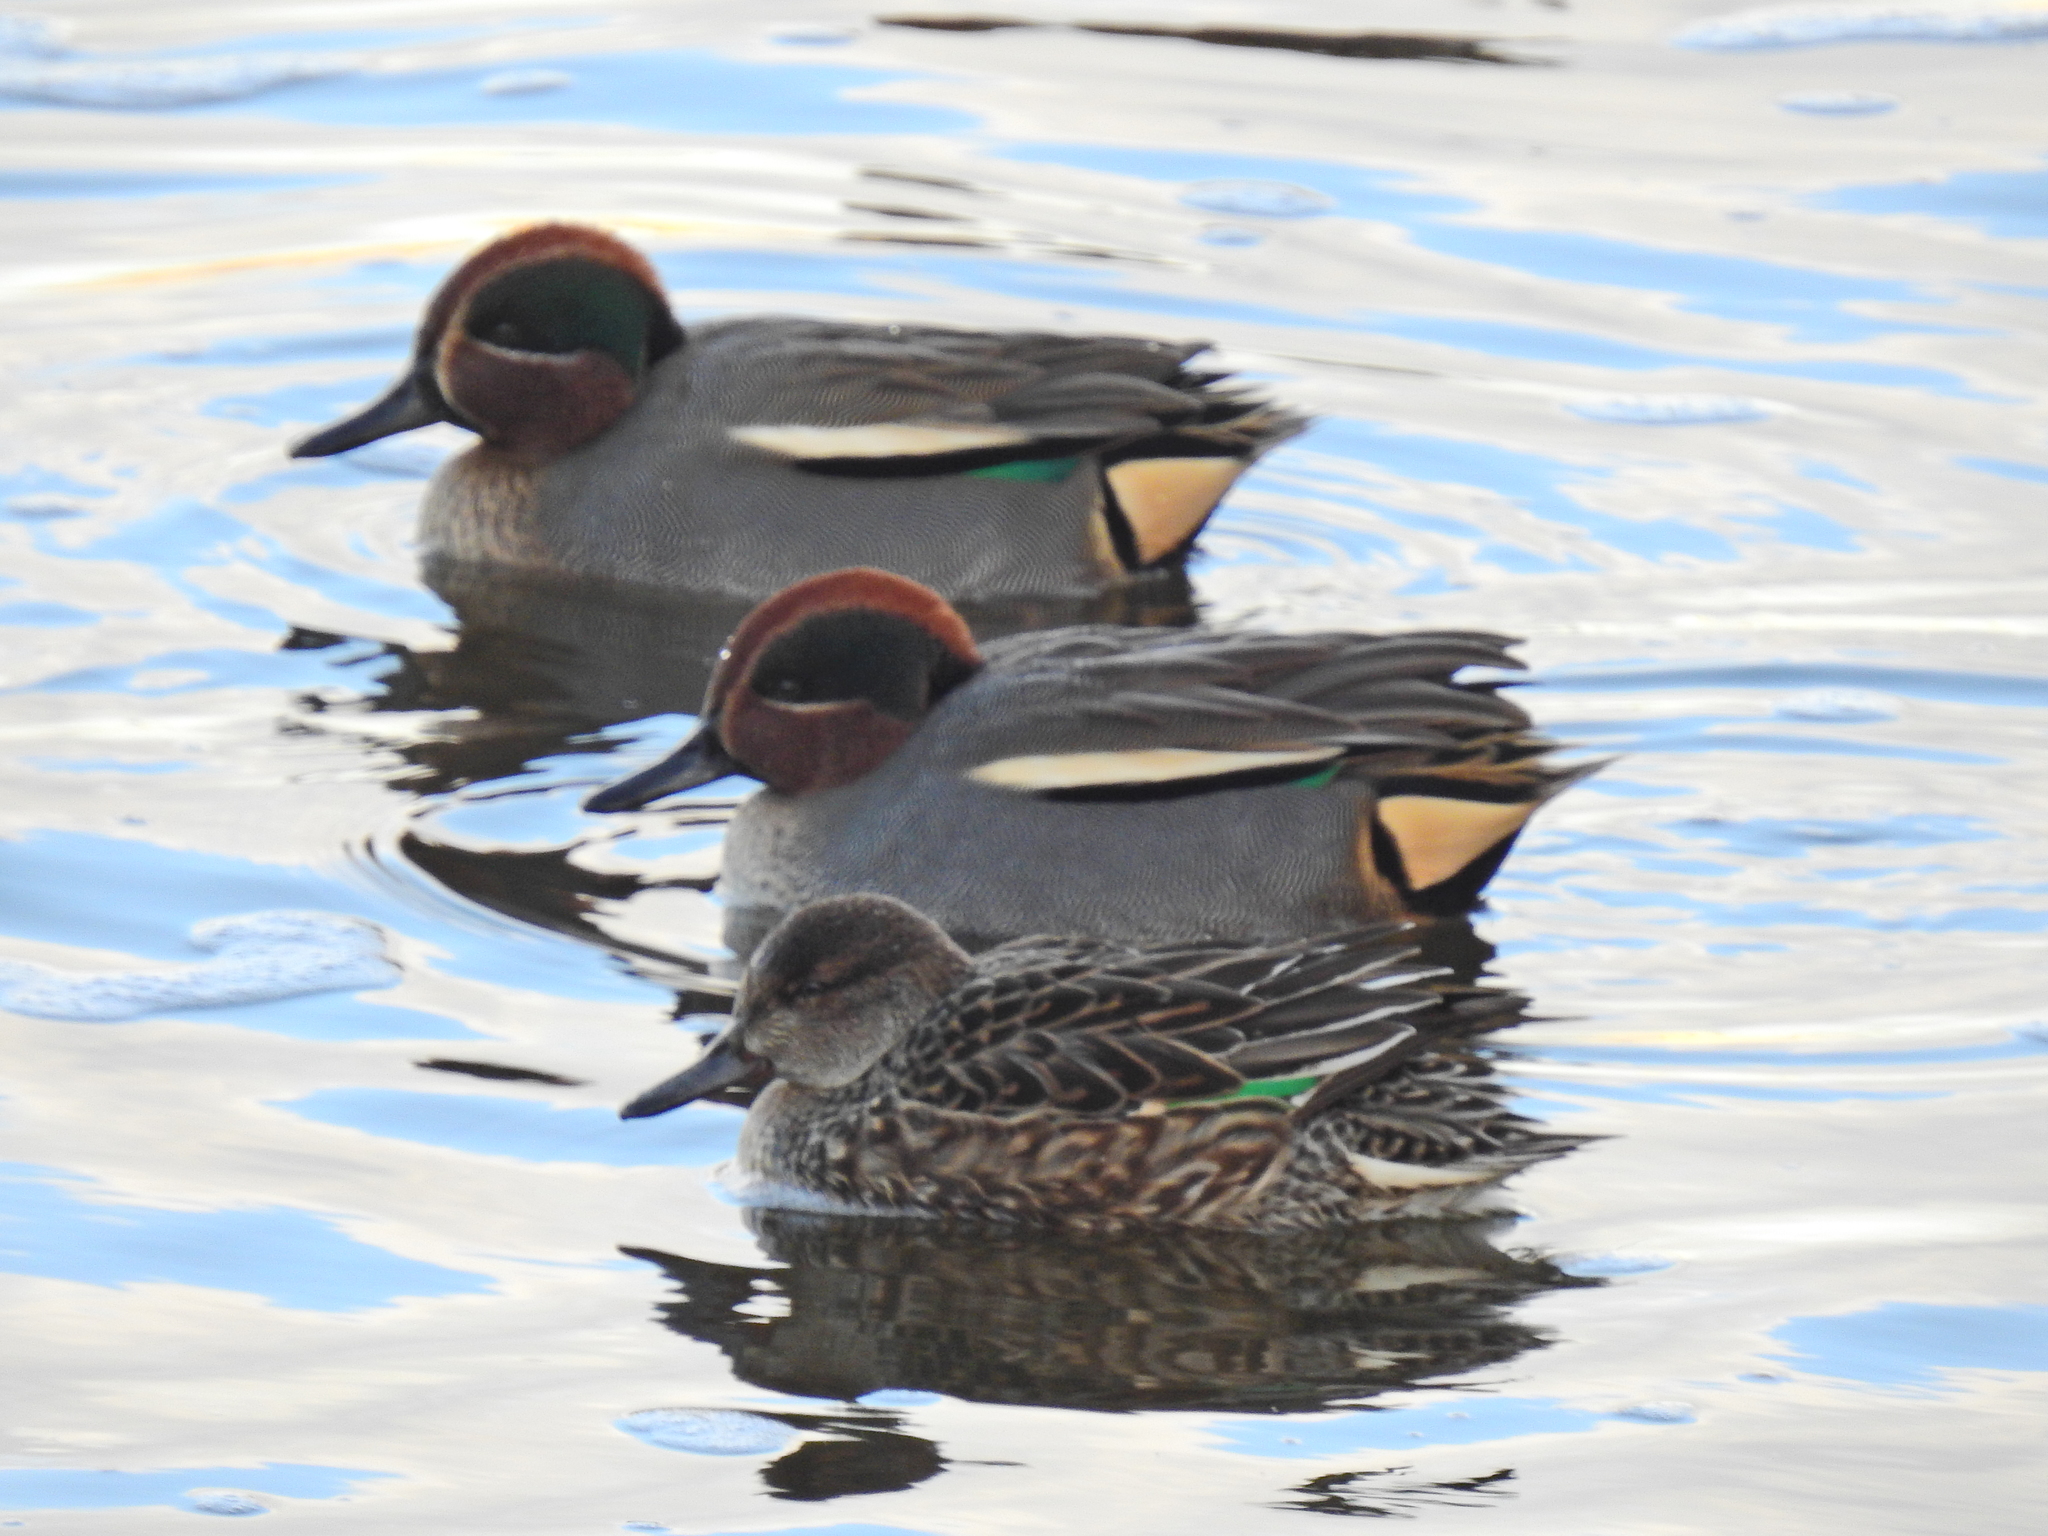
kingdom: Animalia
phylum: Chordata
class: Aves
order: Anseriformes
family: Anatidae
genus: Anas
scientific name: Anas crecca
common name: Eurasian teal
